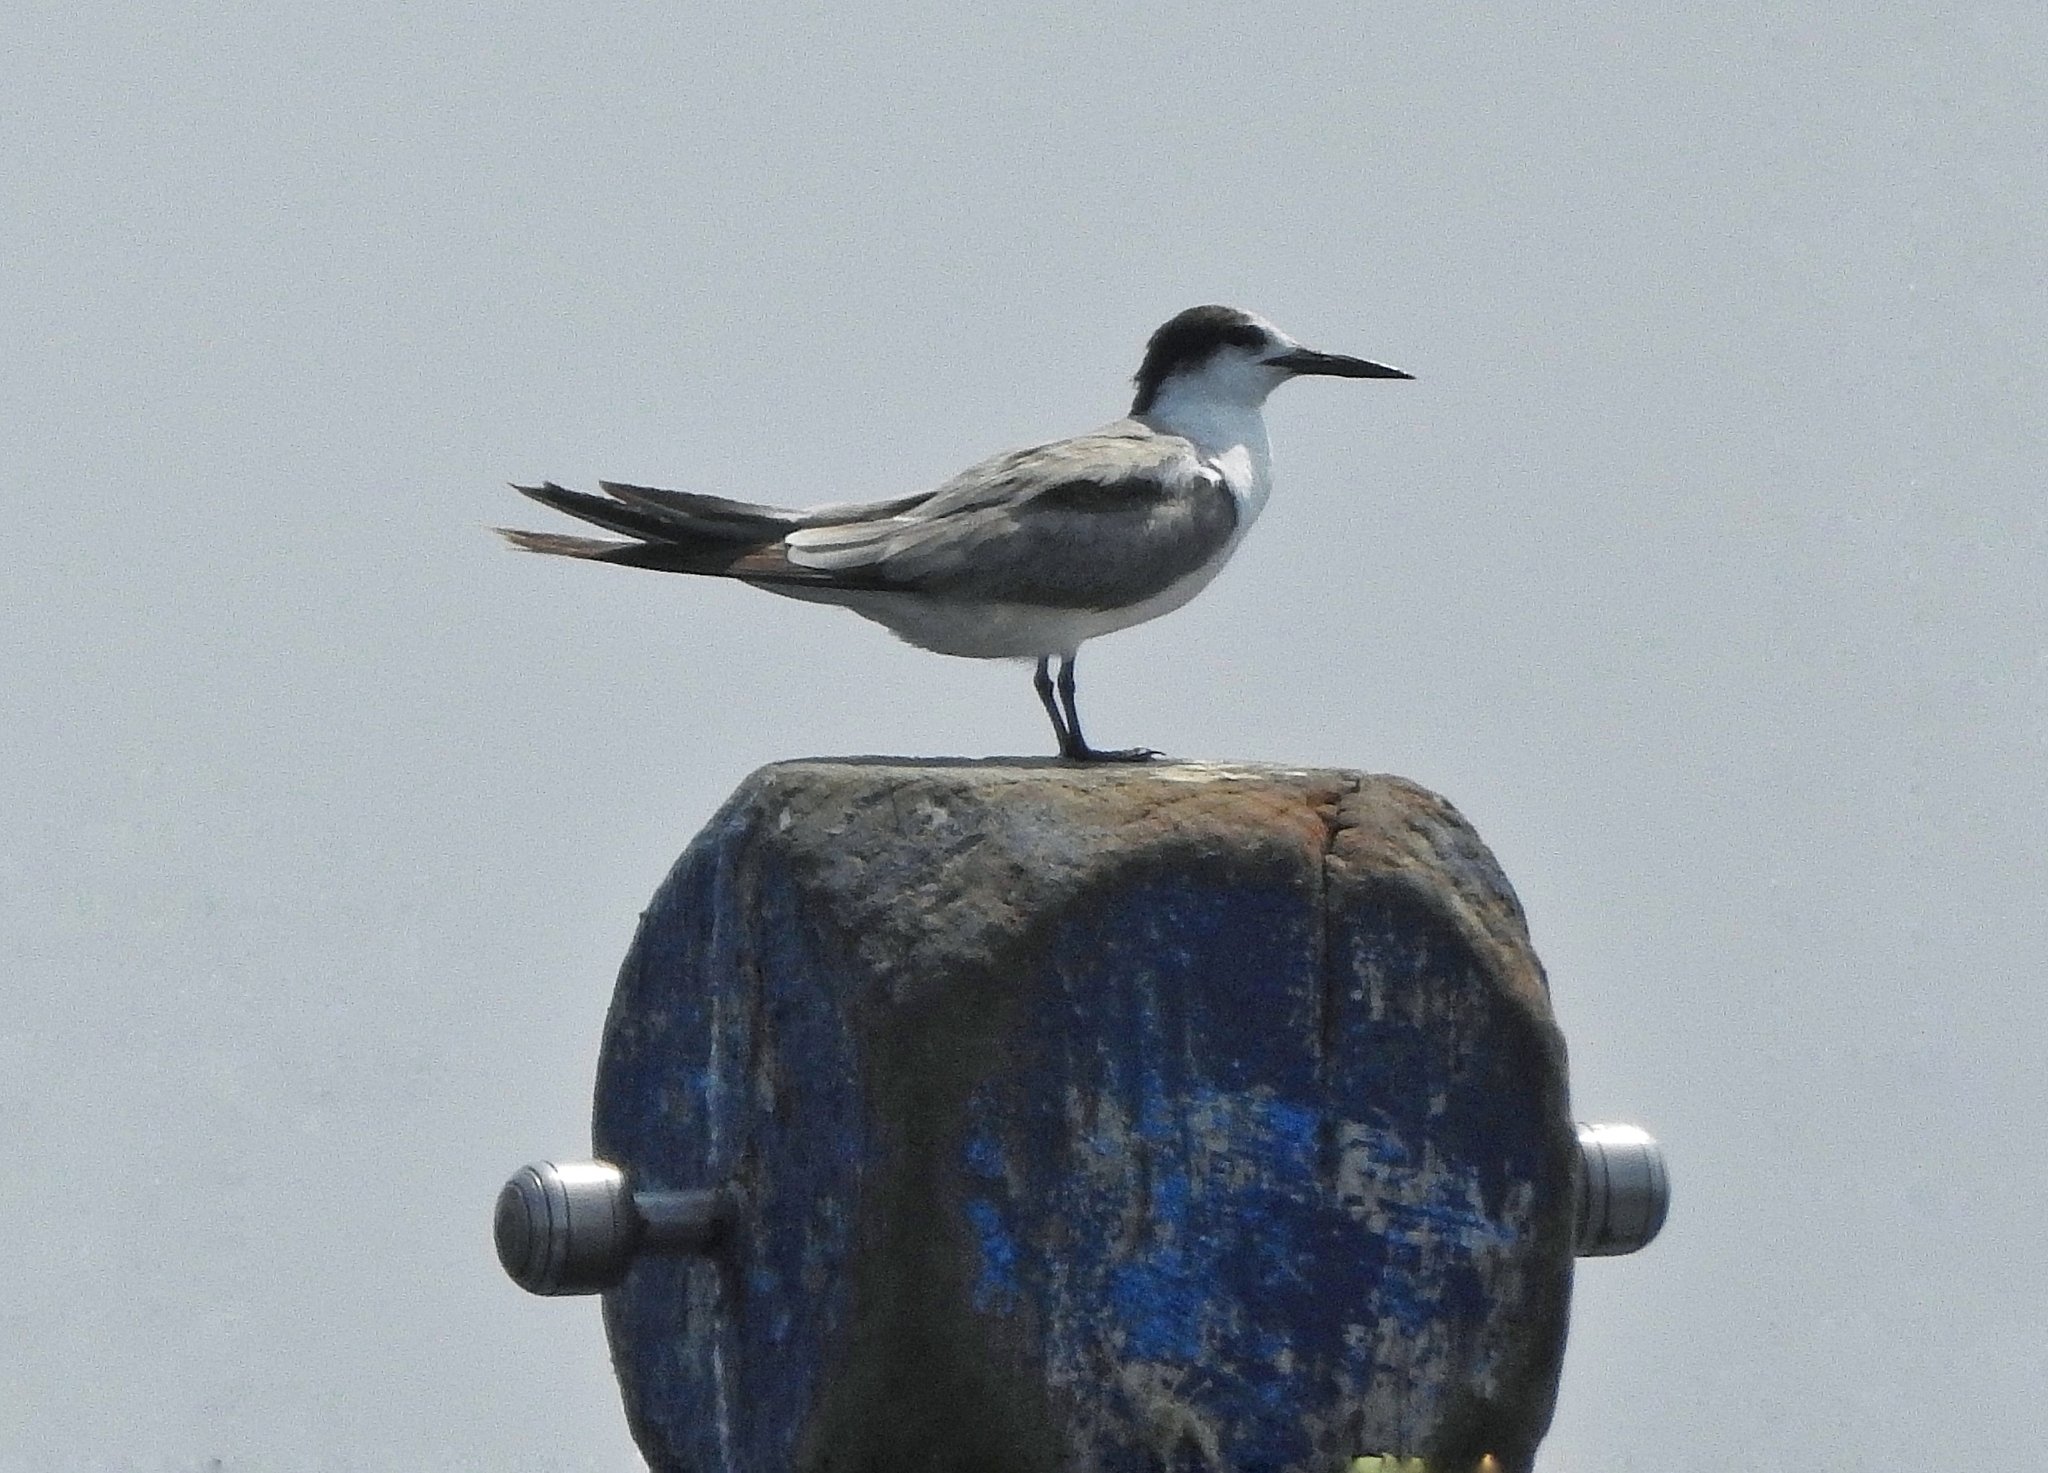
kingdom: Animalia
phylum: Chordata
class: Aves
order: Charadriiformes
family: Laridae
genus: Sternula
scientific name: Sternula albifrons
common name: Little tern
